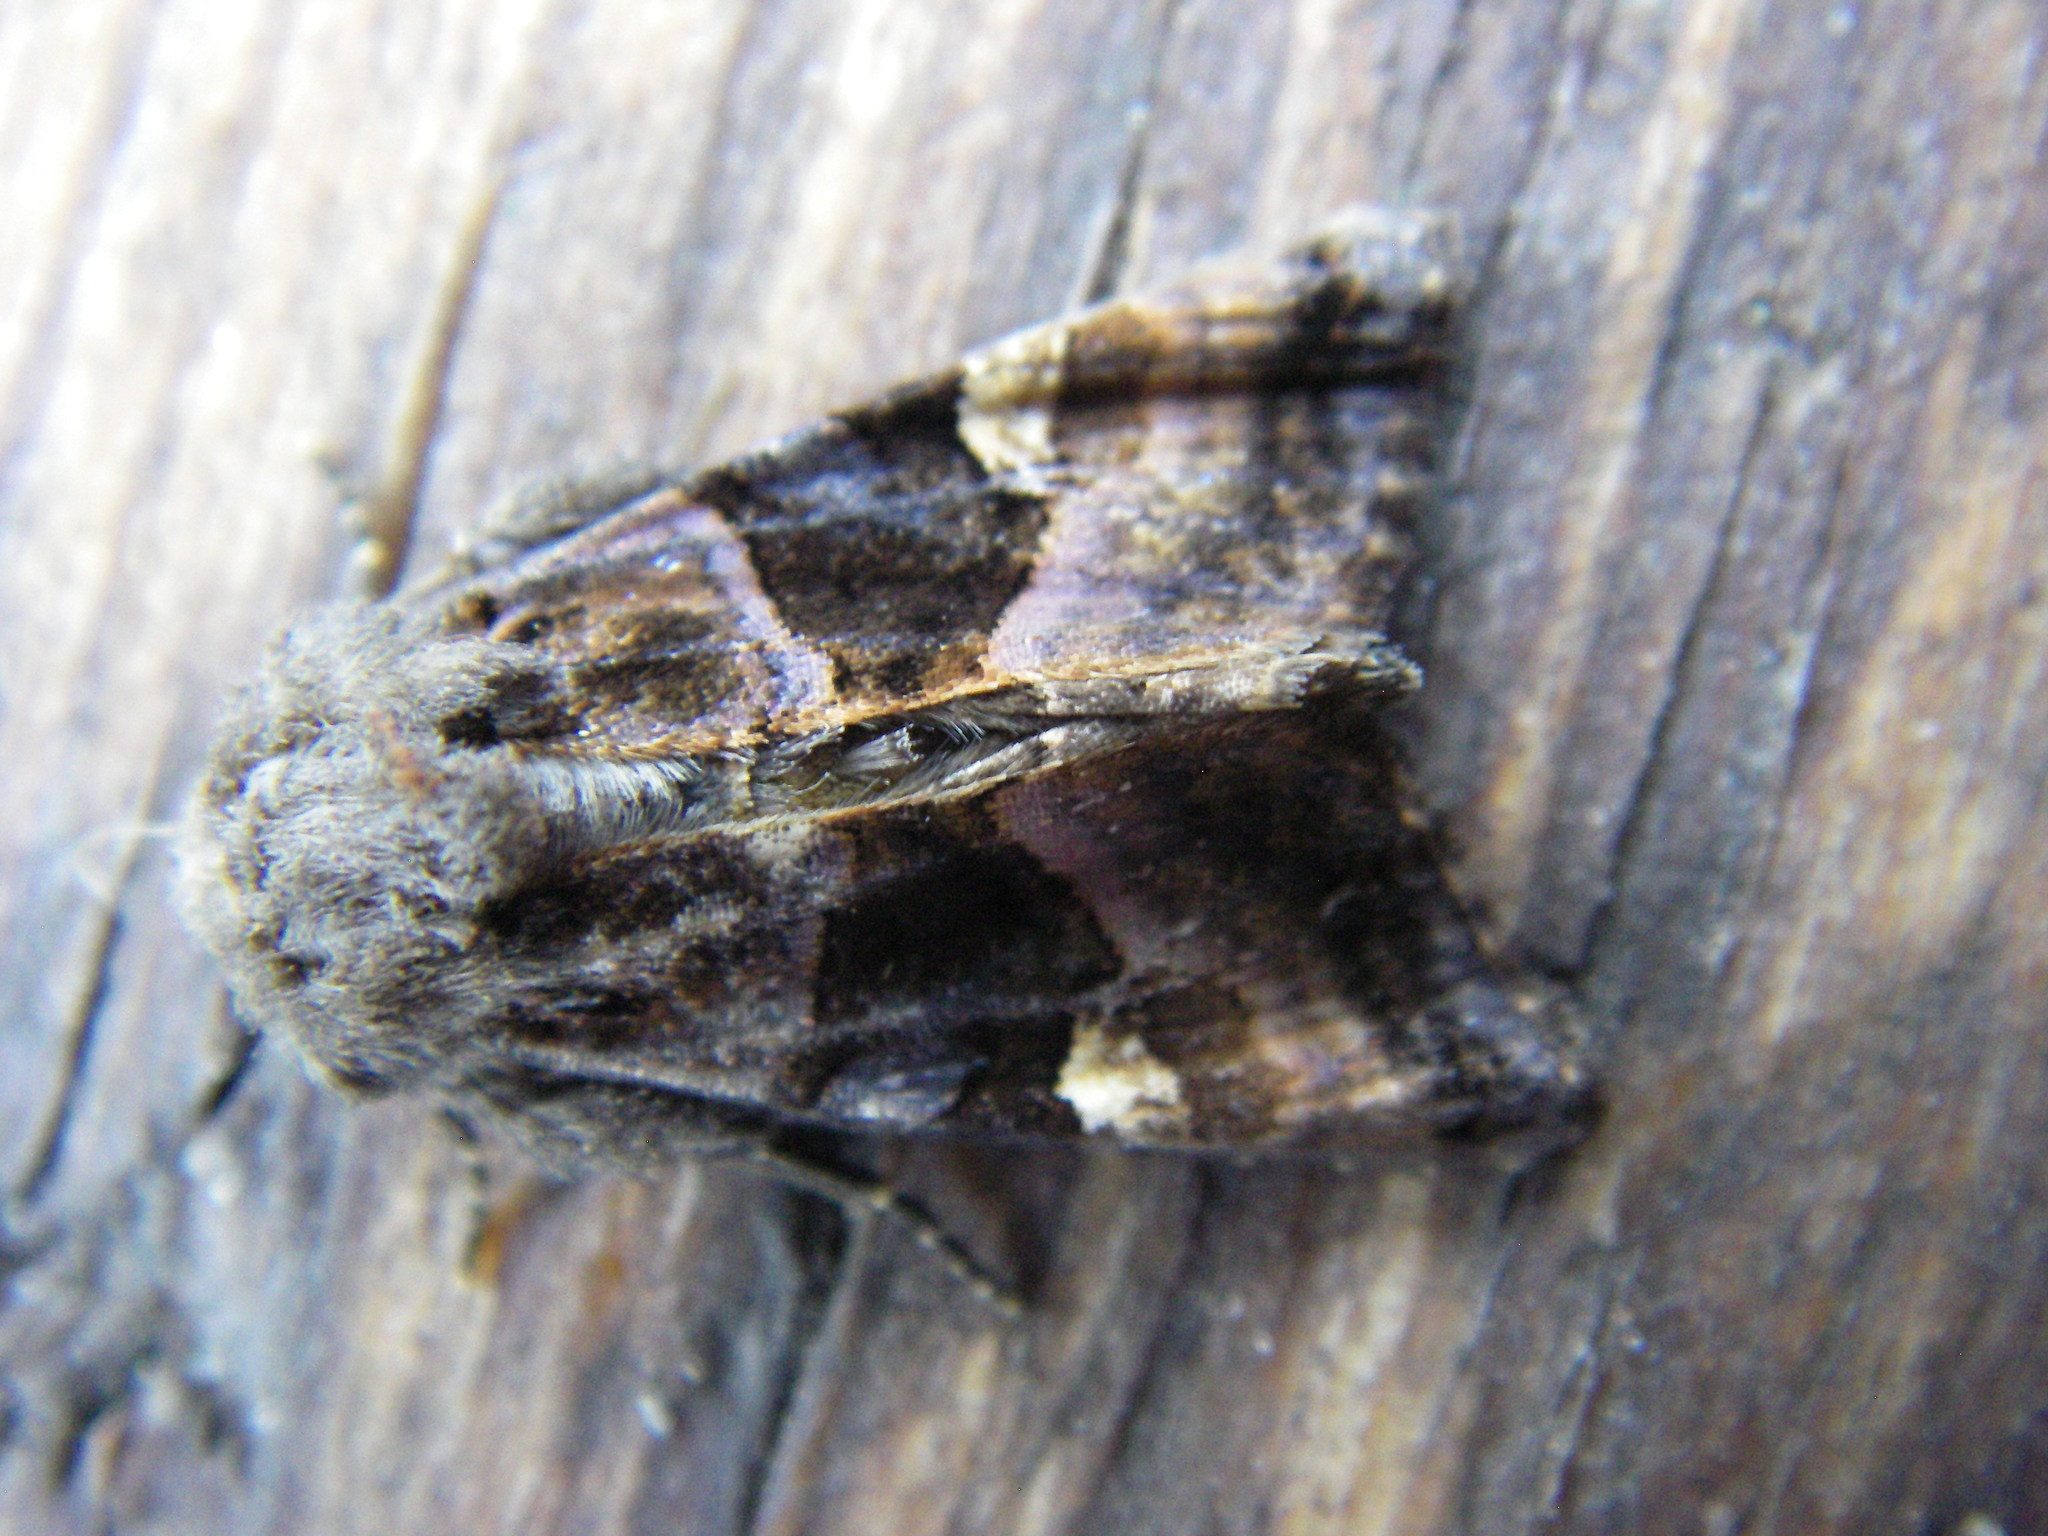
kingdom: Animalia
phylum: Arthropoda
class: Insecta
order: Lepidoptera
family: Noctuidae
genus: Euplexia
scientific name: Euplexia lucipara
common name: Small angle shades
